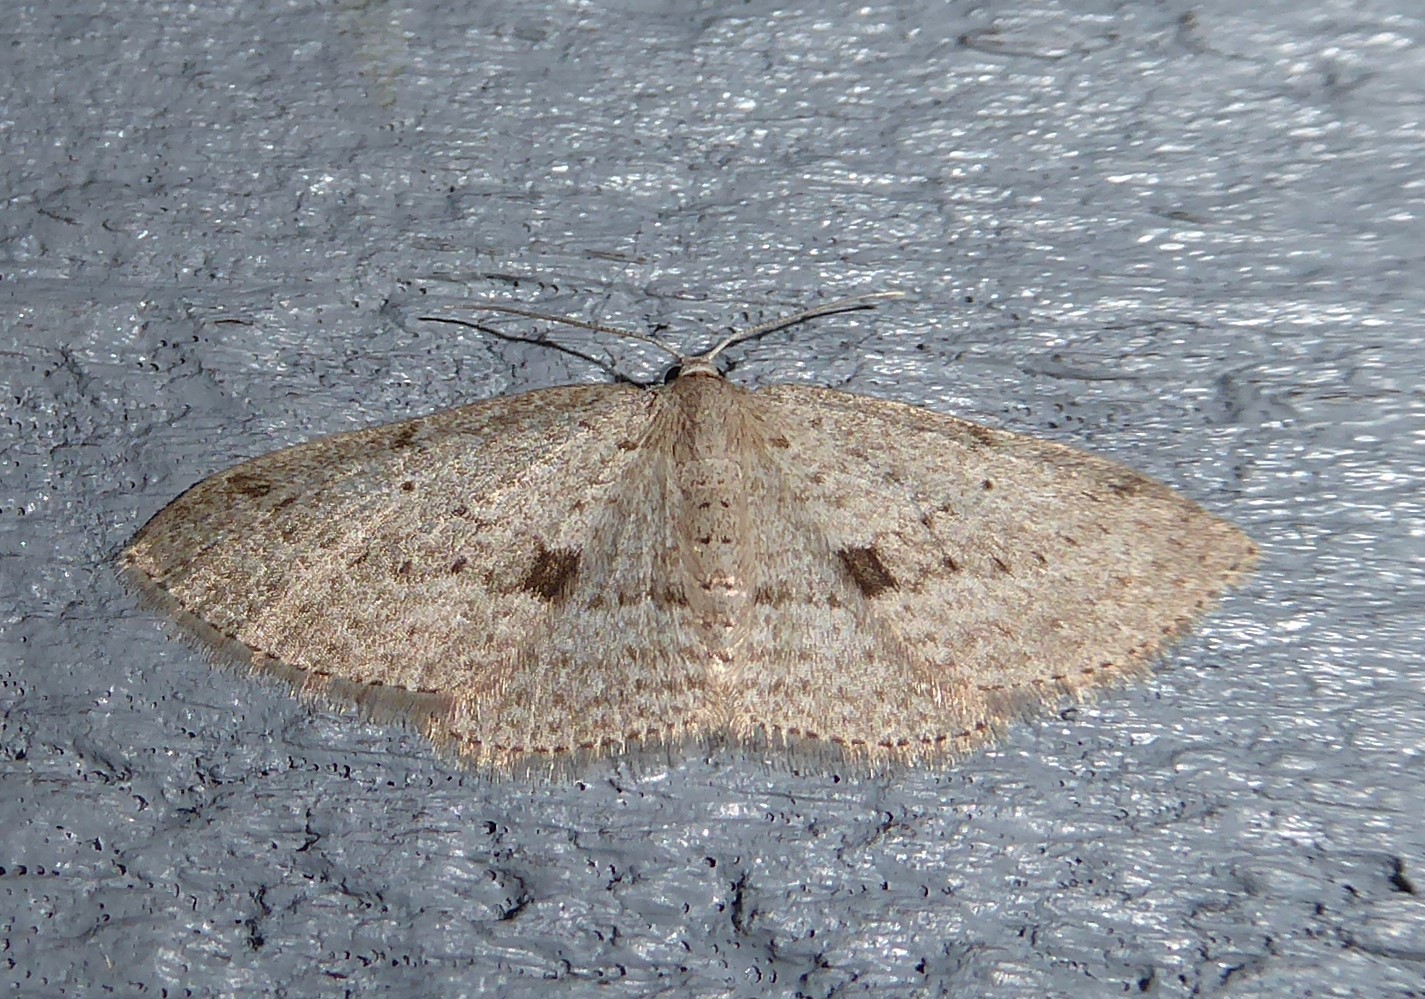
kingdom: Animalia
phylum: Arthropoda
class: Insecta
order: Lepidoptera
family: Geometridae
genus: Poecilasthena
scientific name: Poecilasthena schistaria
